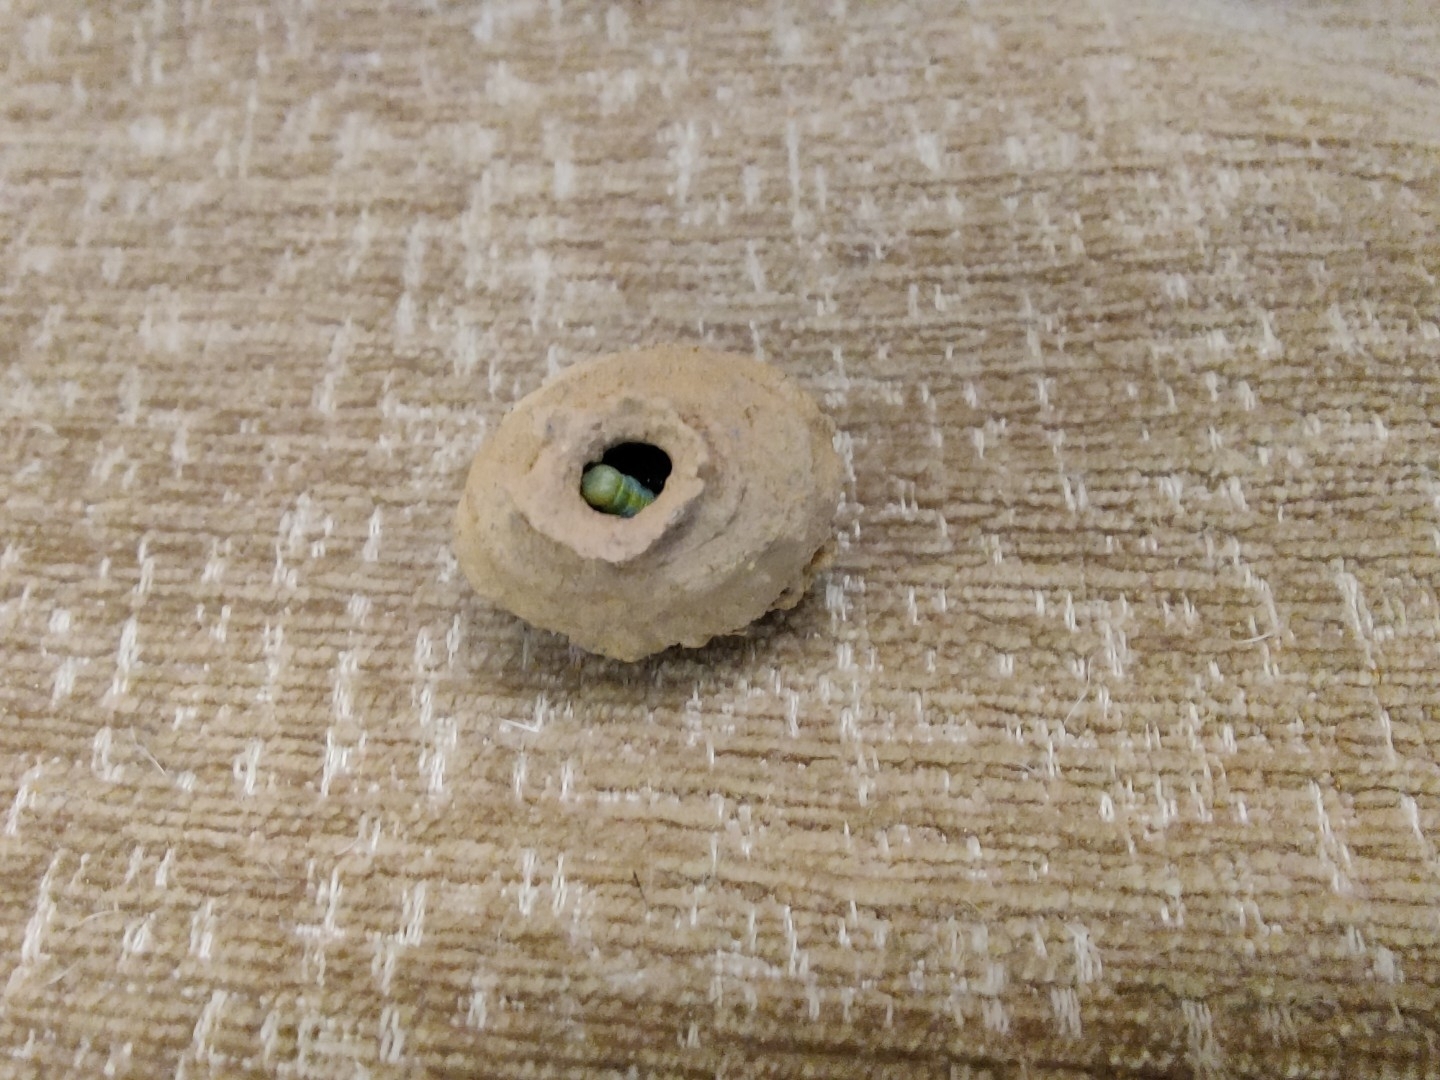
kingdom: Animalia
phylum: Arthropoda
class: Insecta
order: Hymenoptera
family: Eumenidae
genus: Delta
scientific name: Delta conoideum
